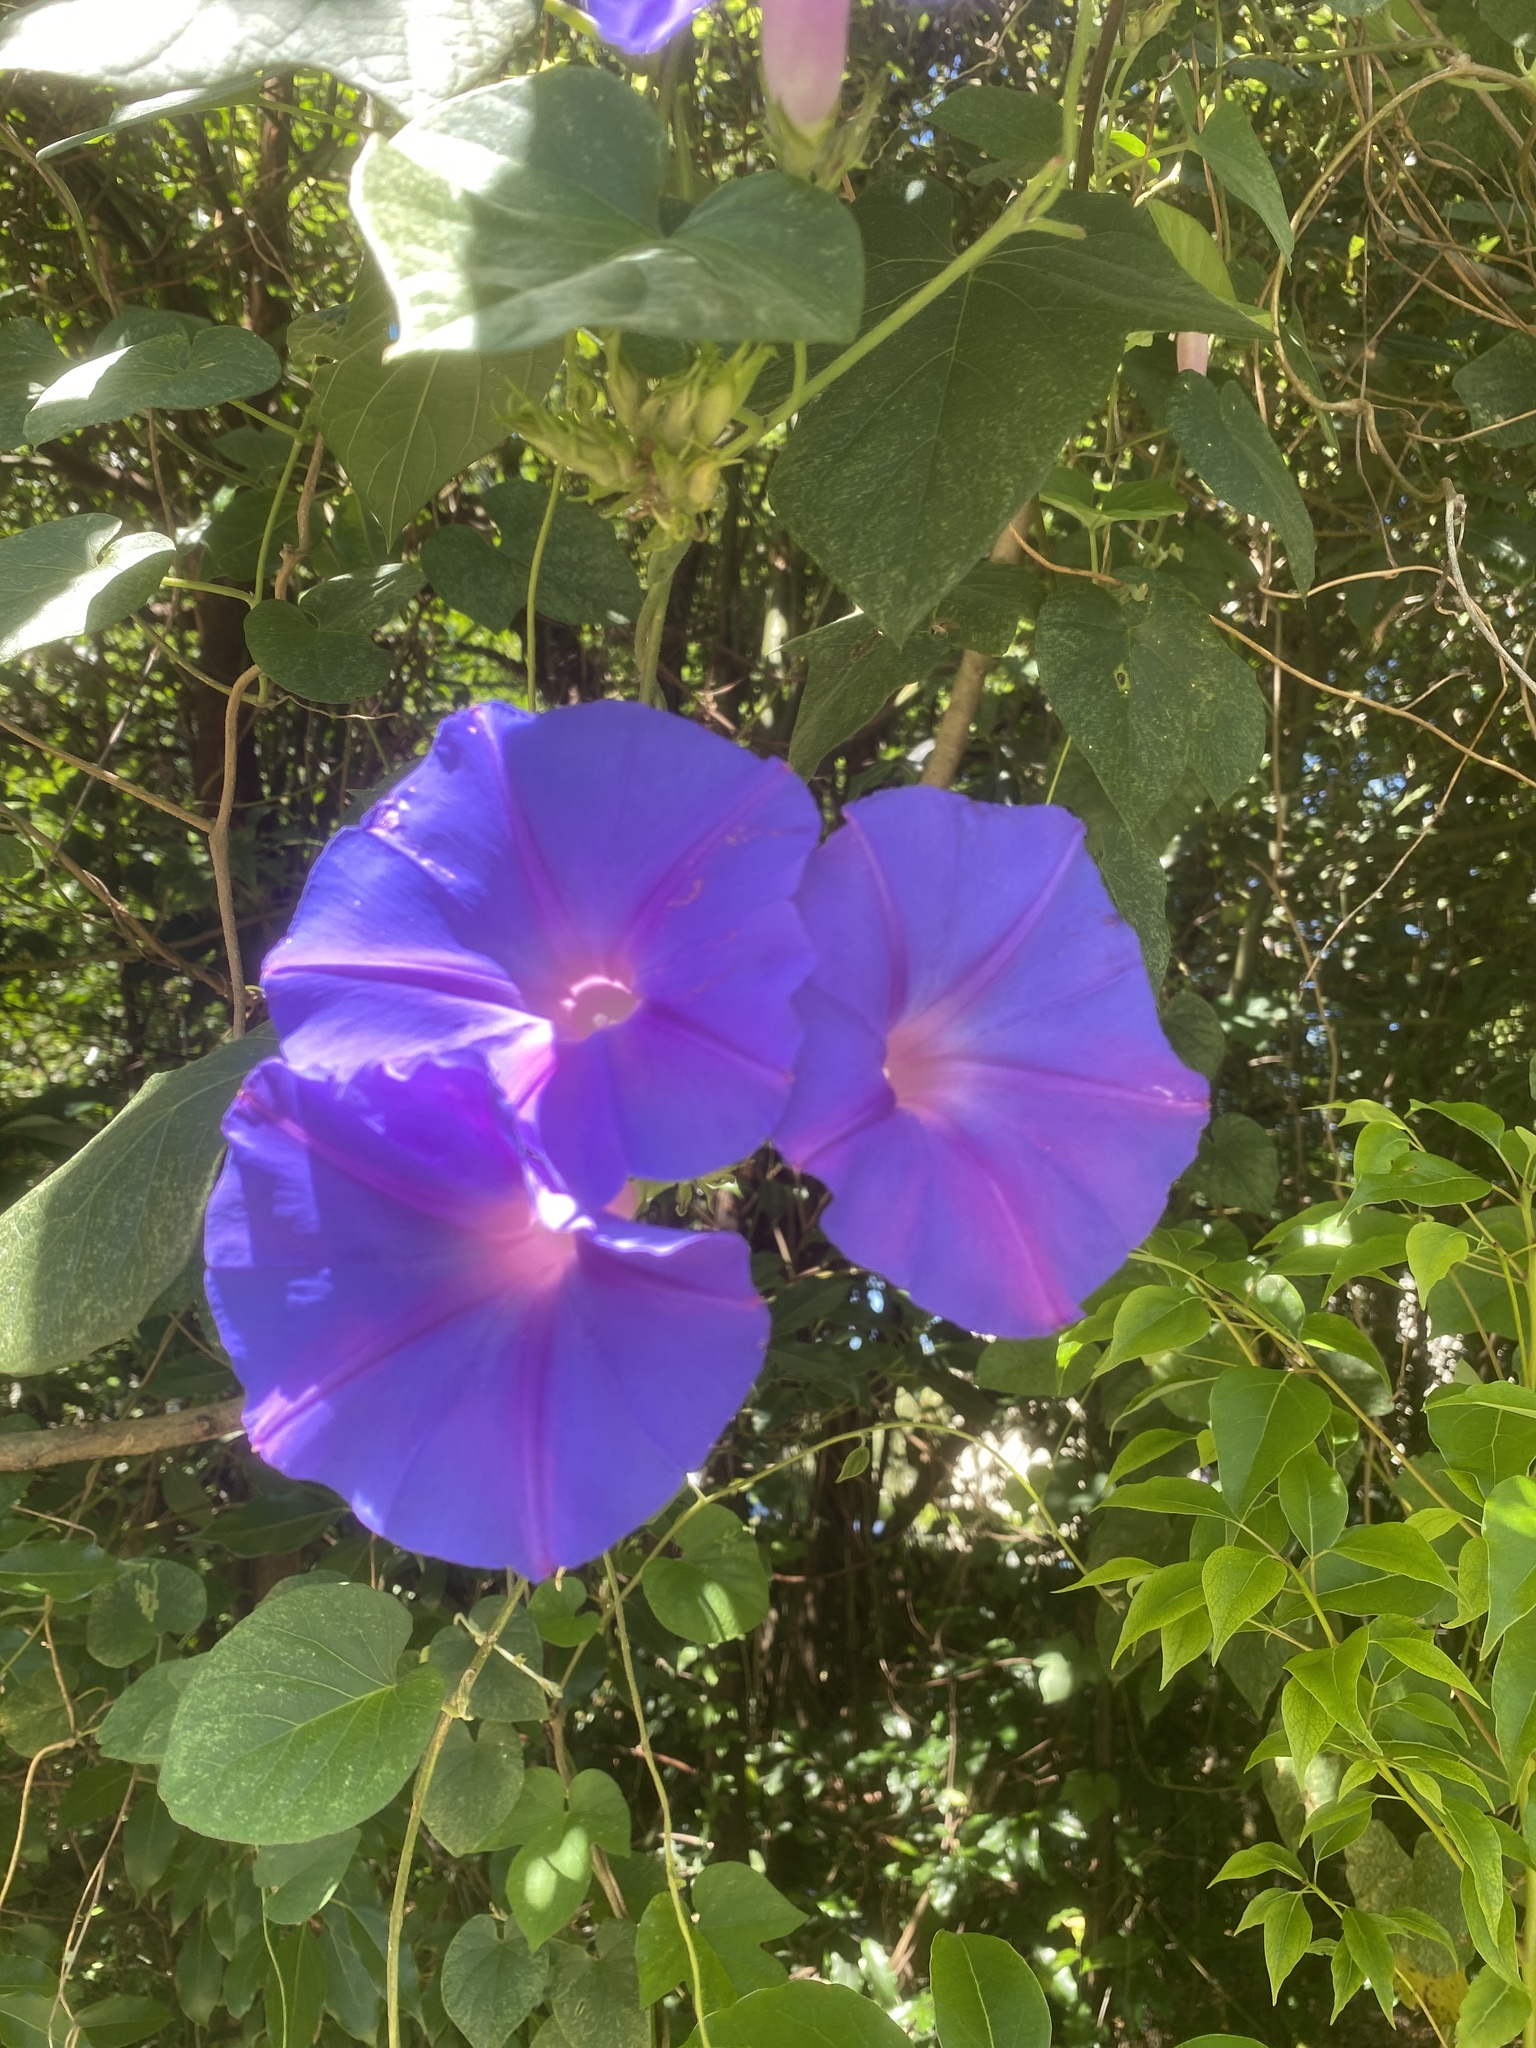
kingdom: Plantae
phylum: Tracheophyta
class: Magnoliopsida
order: Solanales
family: Convolvulaceae
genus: Ipomoea
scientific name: Ipomoea indica
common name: Blue dawnflower
